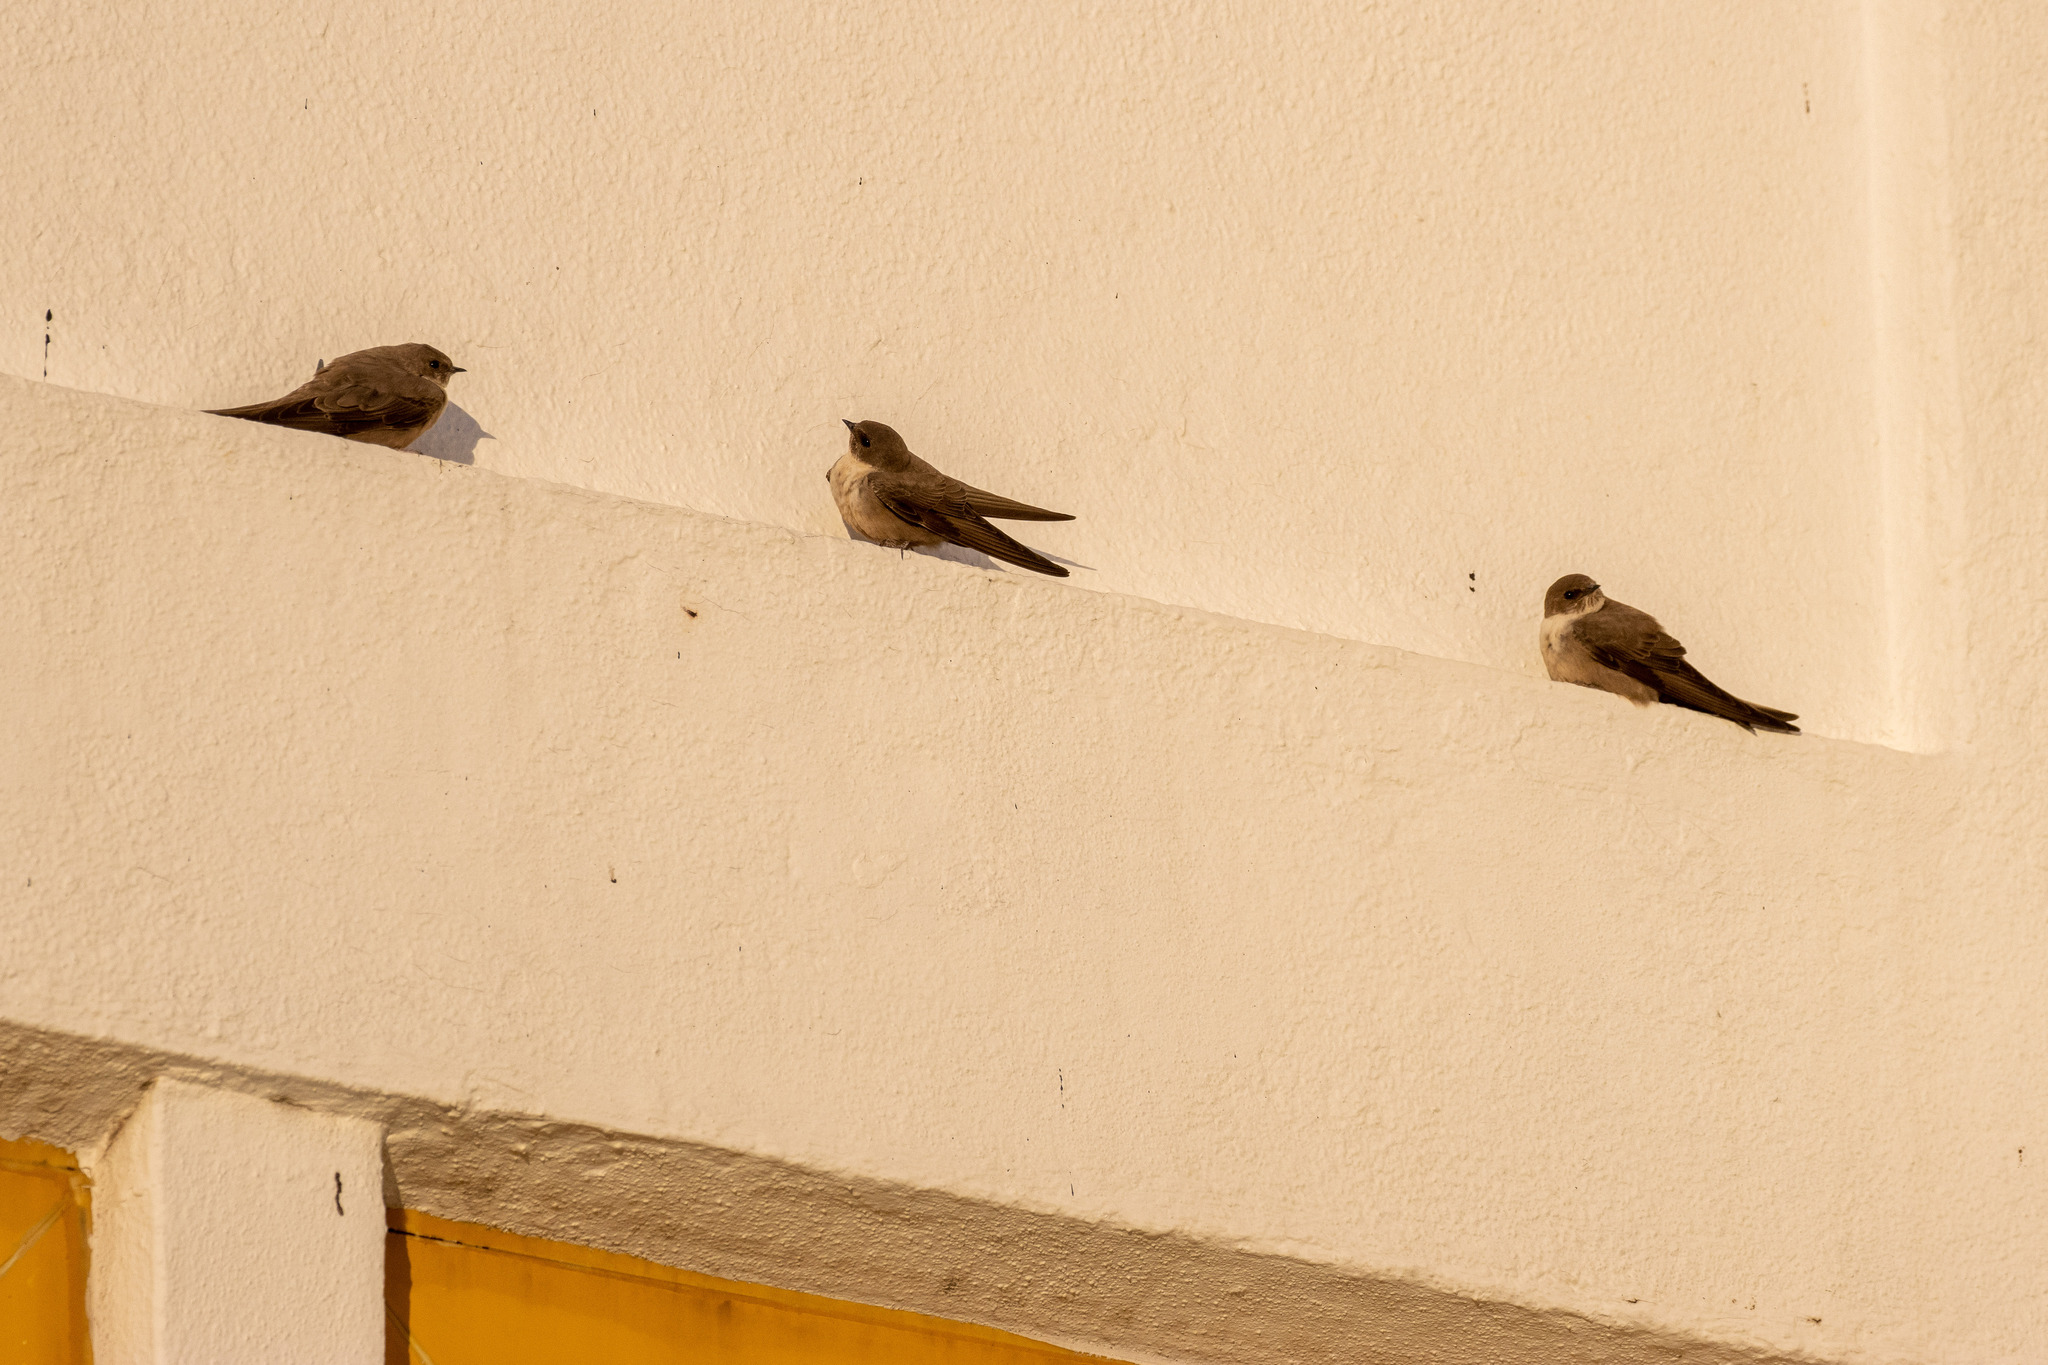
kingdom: Animalia
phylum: Chordata
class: Aves
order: Passeriformes
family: Hirundinidae
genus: Ptyonoprogne
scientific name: Ptyonoprogne rupestris
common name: Eurasian crag martin
